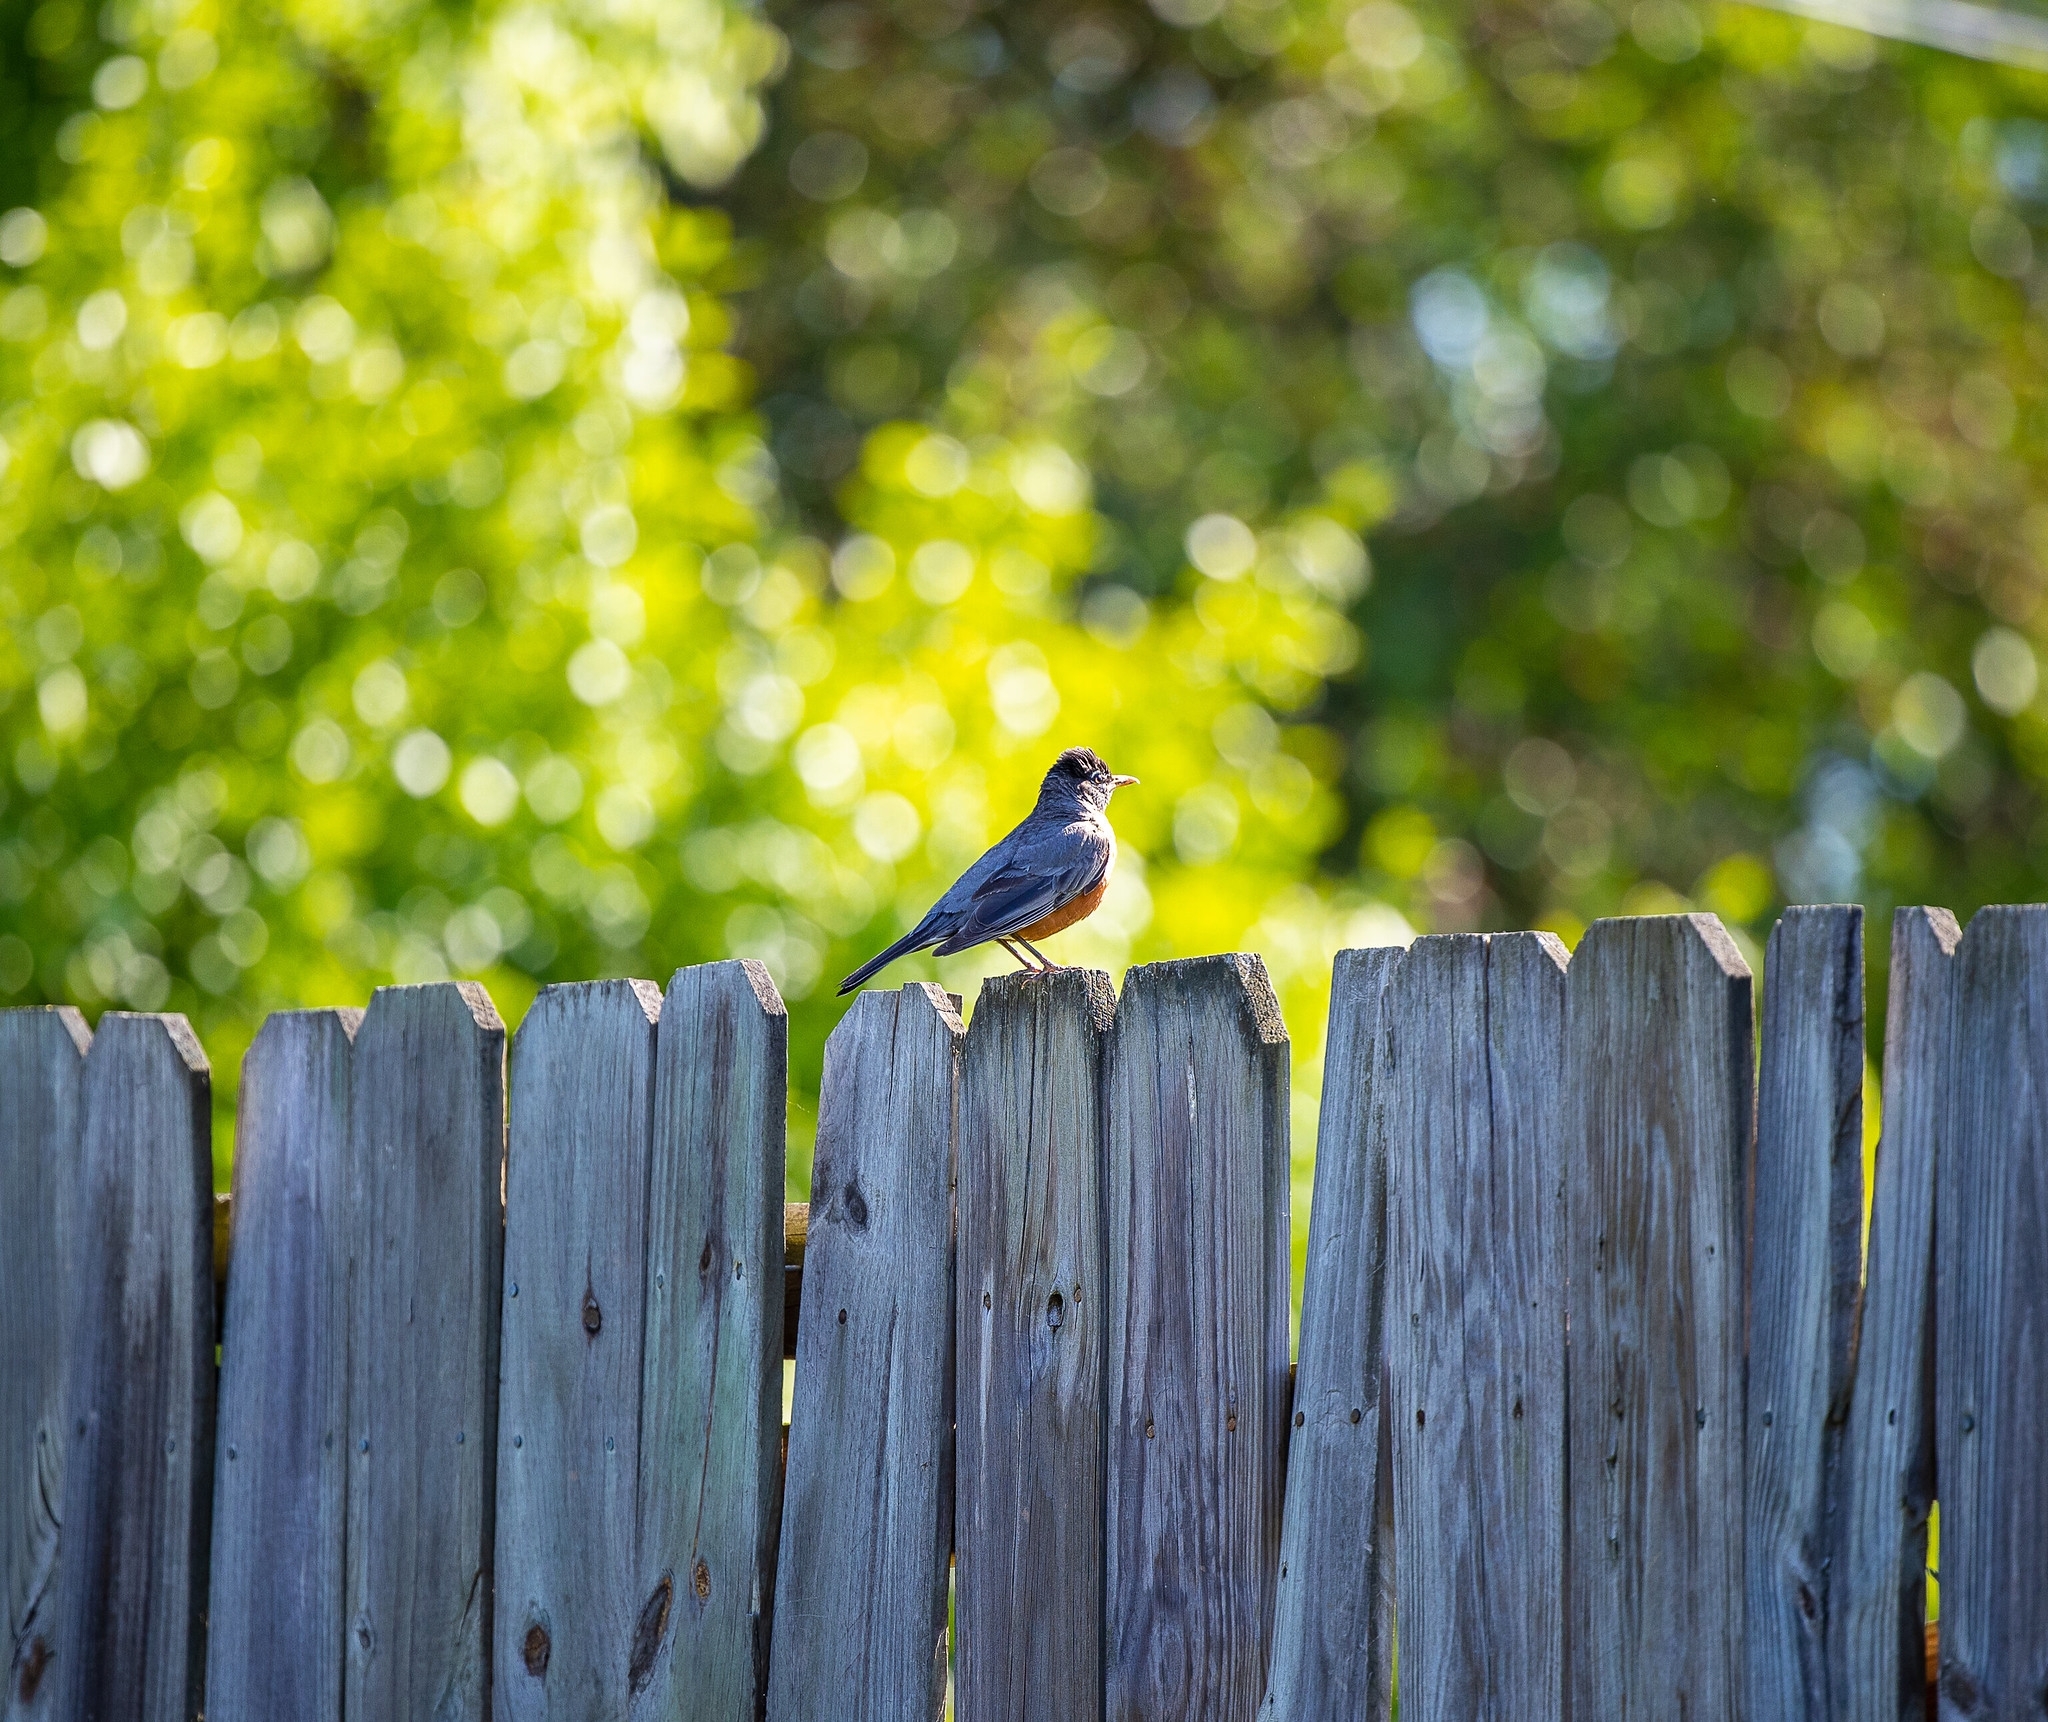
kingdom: Animalia
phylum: Chordata
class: Aves
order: Passeriformes
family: Turdidae
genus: Turdus
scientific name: Turdus migratorius
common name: American robin
